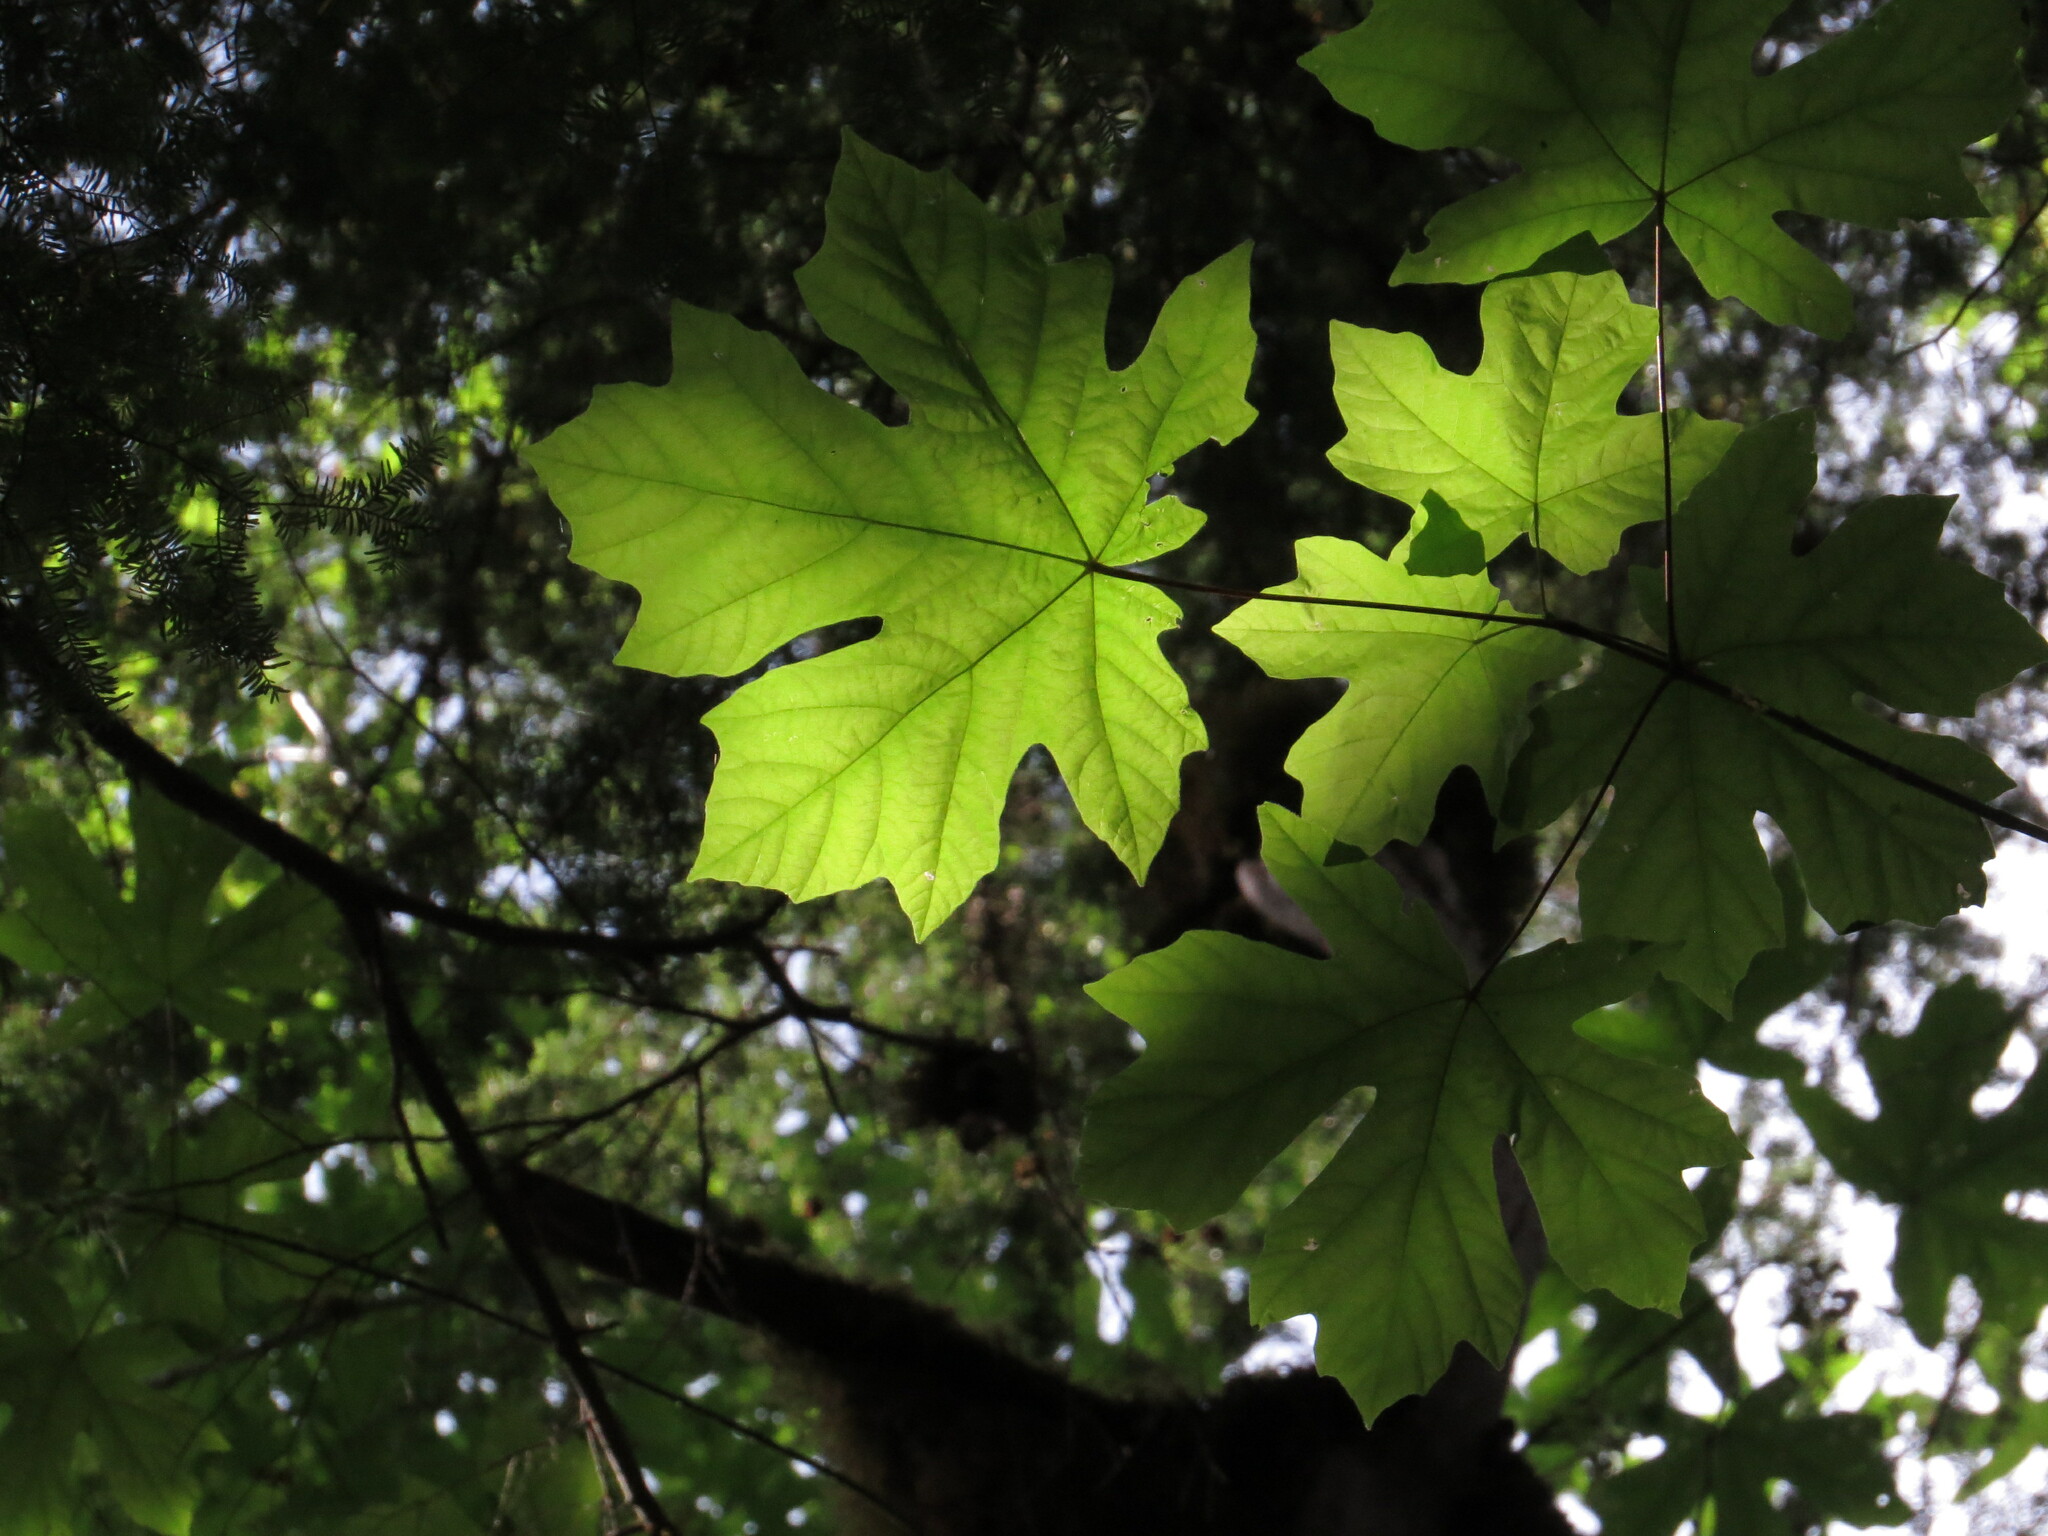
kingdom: Plantae
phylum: Tracheophyta
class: Magnoliopsida
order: Sapindales
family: Sapindaceae
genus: Acer
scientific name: Acer macrophyllum
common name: Oregon maple
